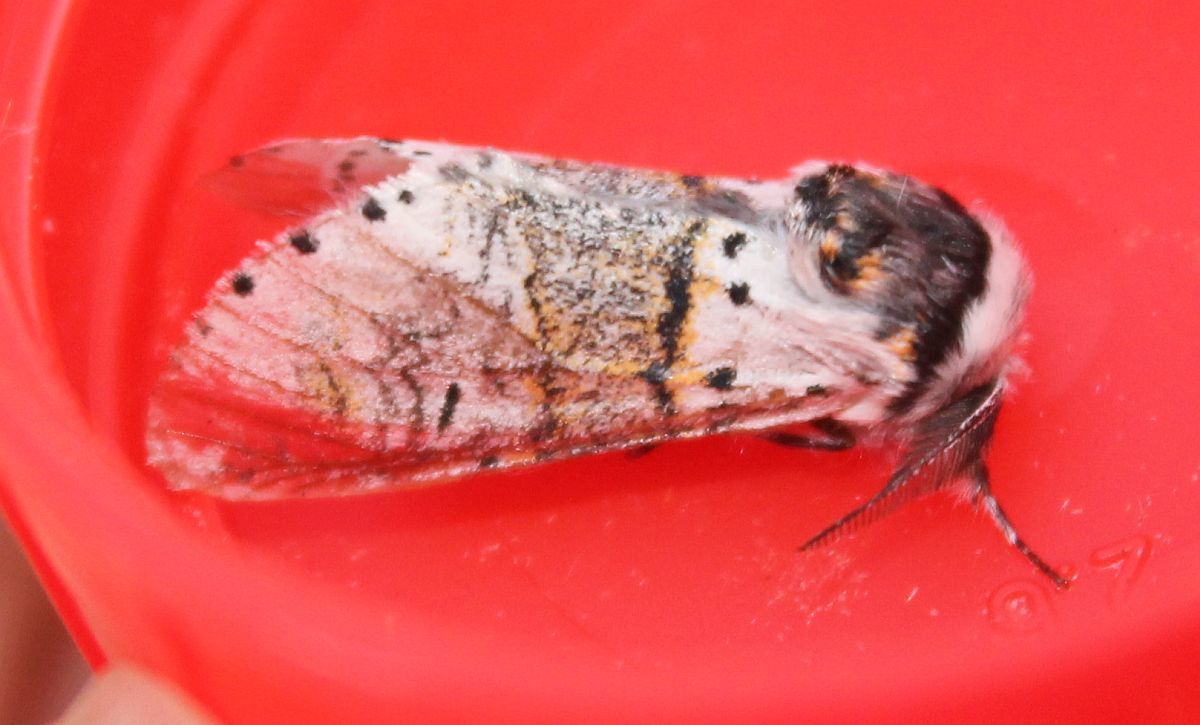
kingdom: Animalia
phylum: Arthropoda
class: Insecta
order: Lepidoptera
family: Notodontidae
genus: Furcula
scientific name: Furcula furcula
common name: Sallow kitten
